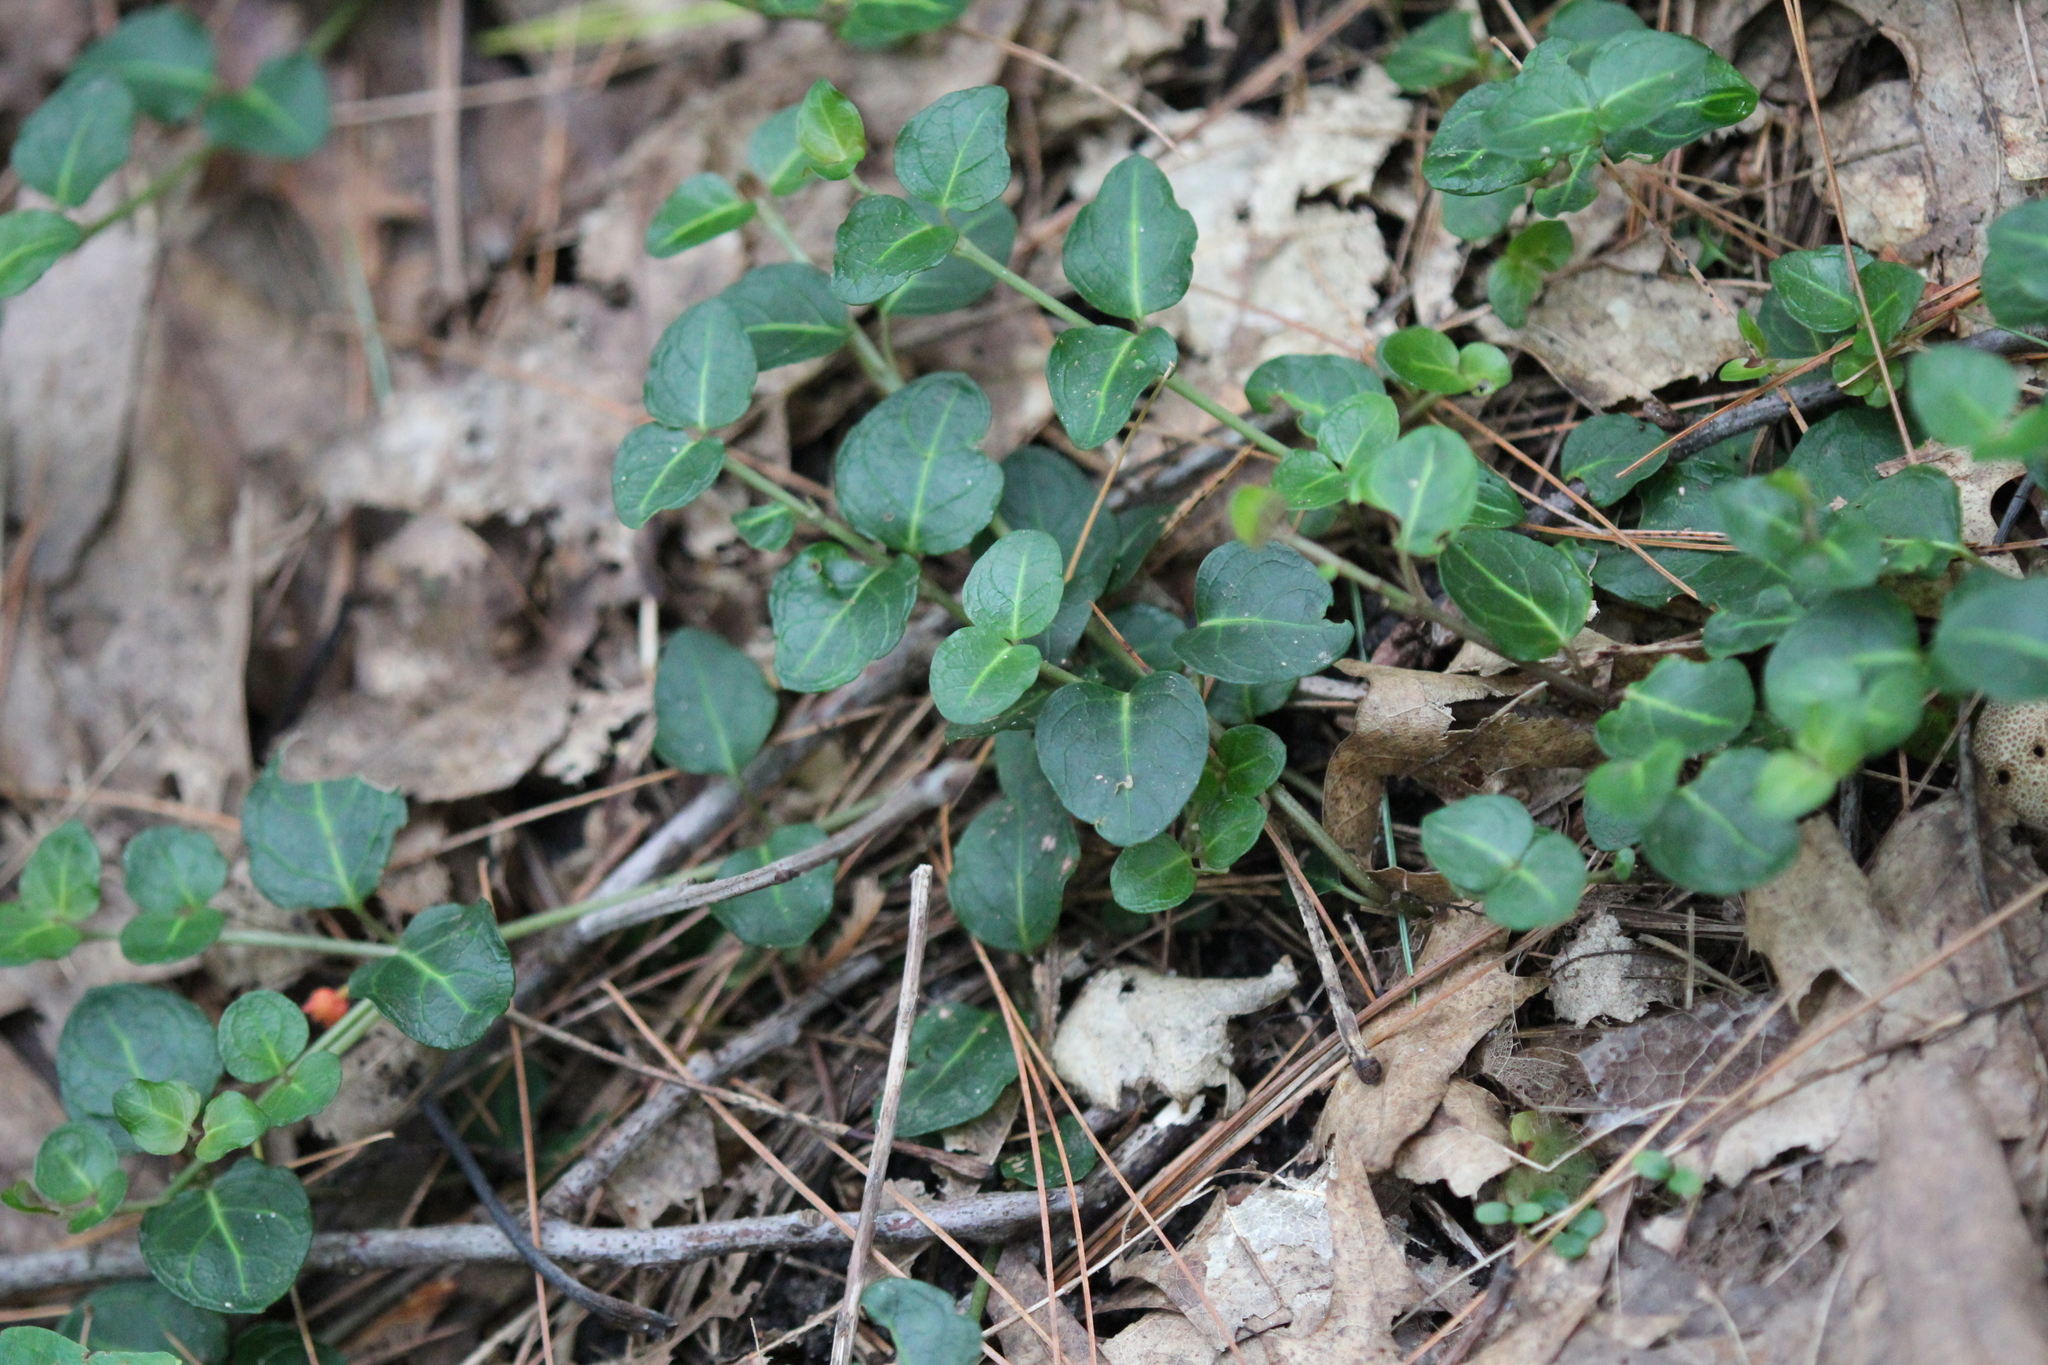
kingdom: Plantae
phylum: Tracheophyta
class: Magnoliopsida
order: Gentianales
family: Rubiaceae
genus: Mitchella
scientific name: Mitchella repens
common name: Partridge-berry
